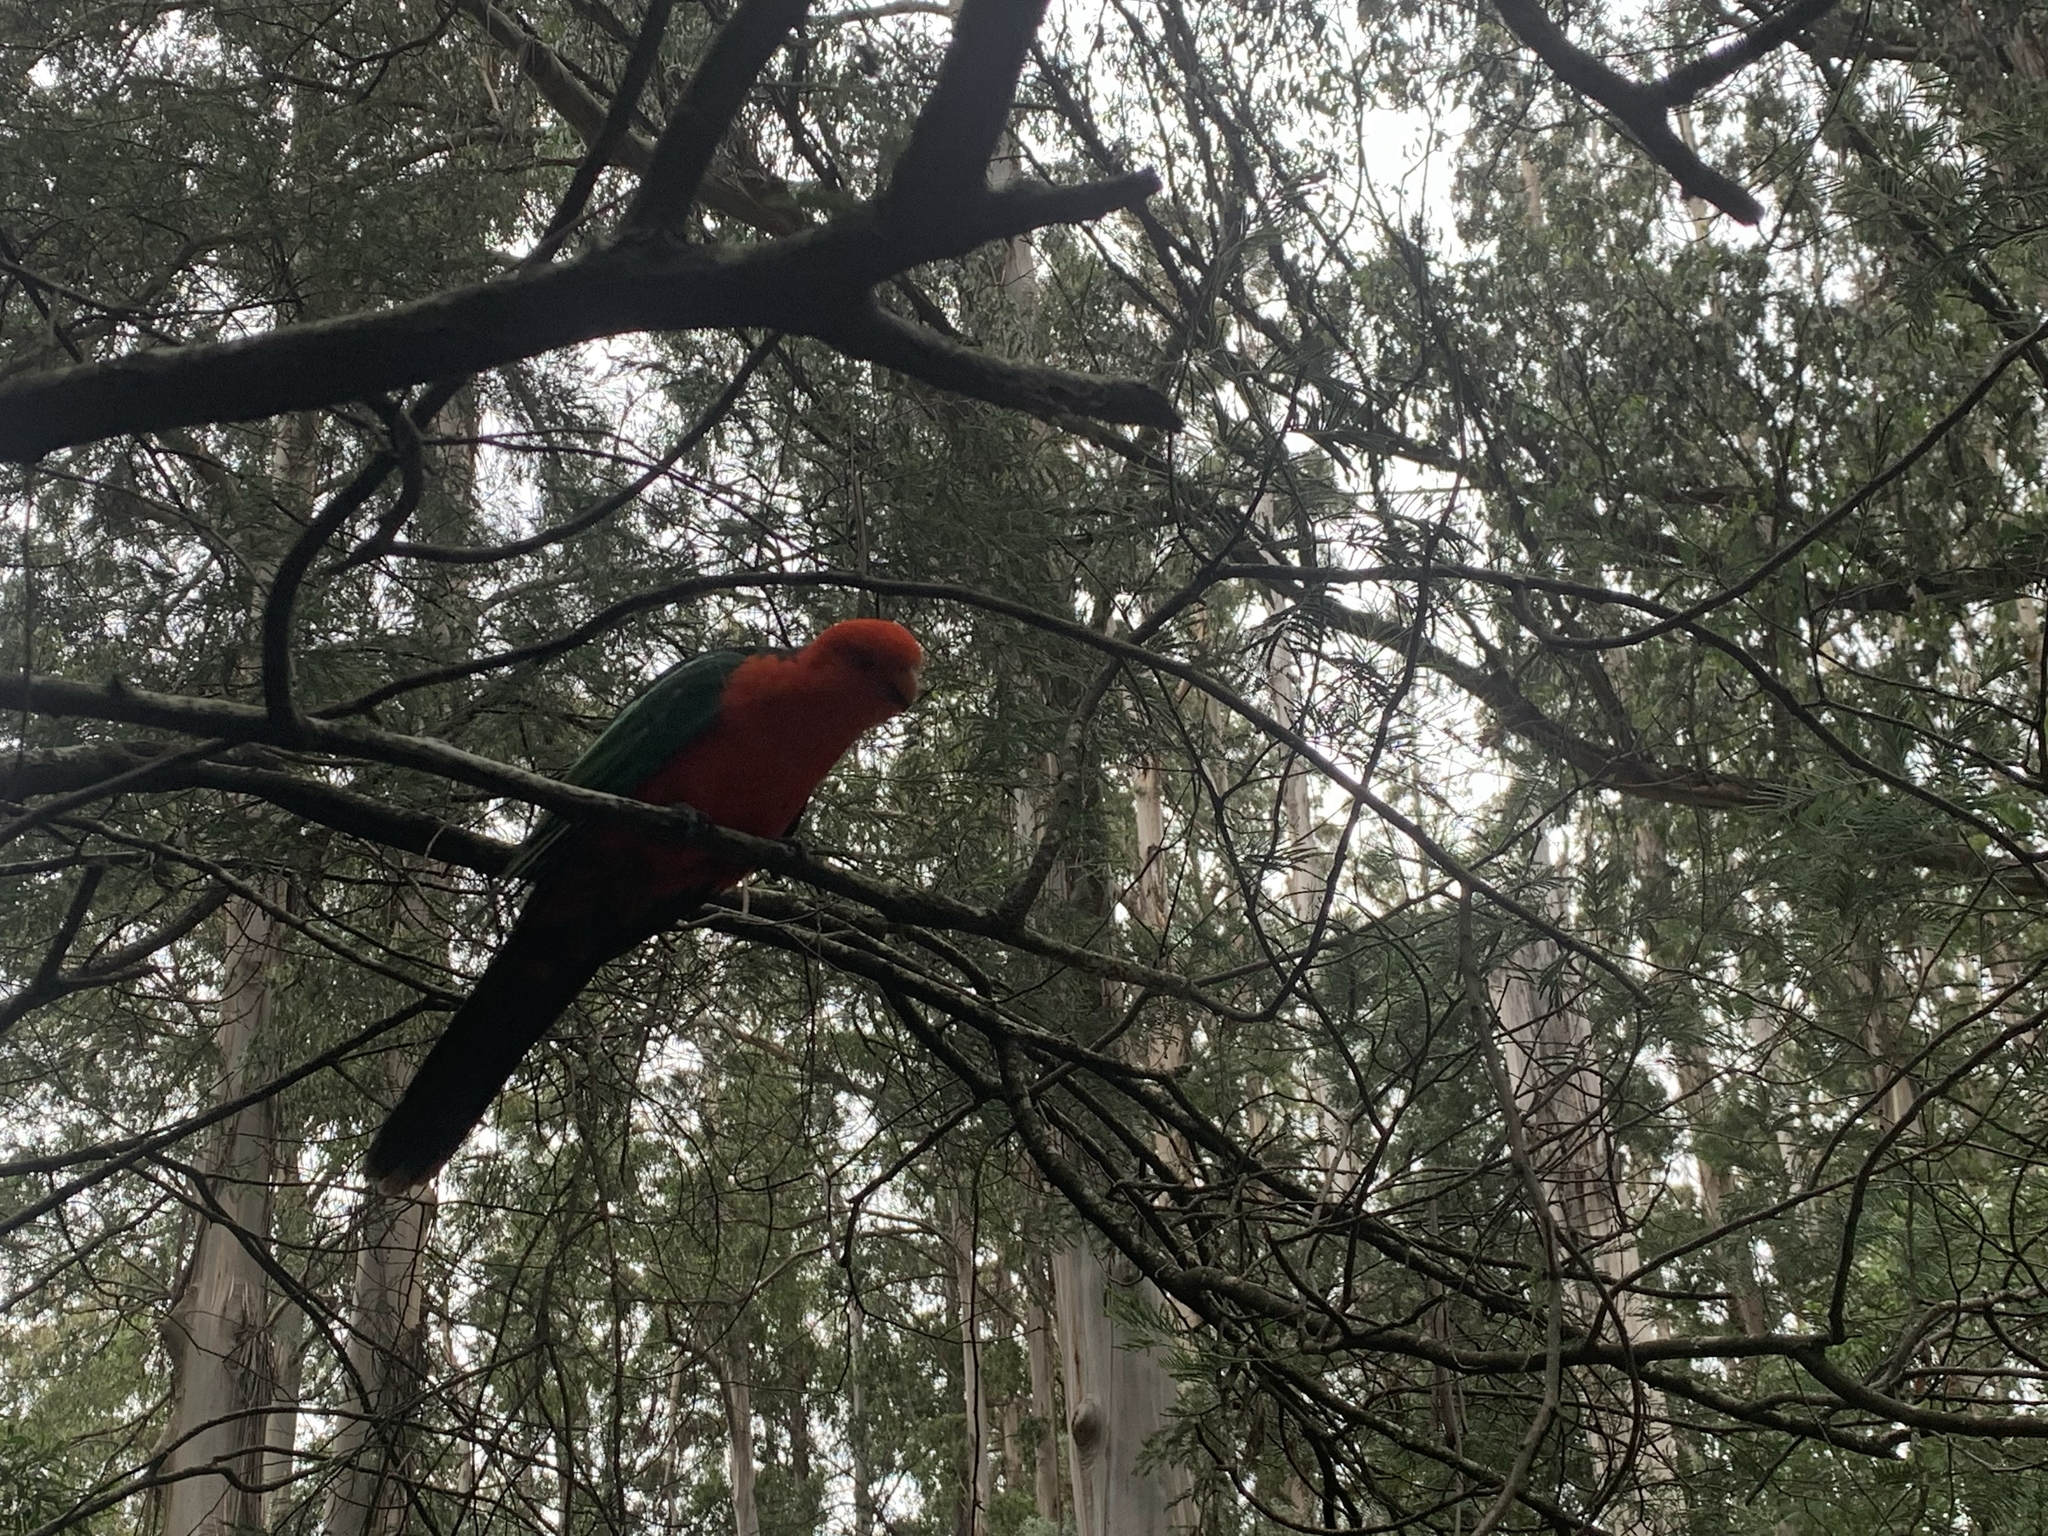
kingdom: Animalia
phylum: Chordata
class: Aves
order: Psittaciformes
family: Psittacidae
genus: Alisterus
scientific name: Alisterus scapularis
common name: Australian king parrot
